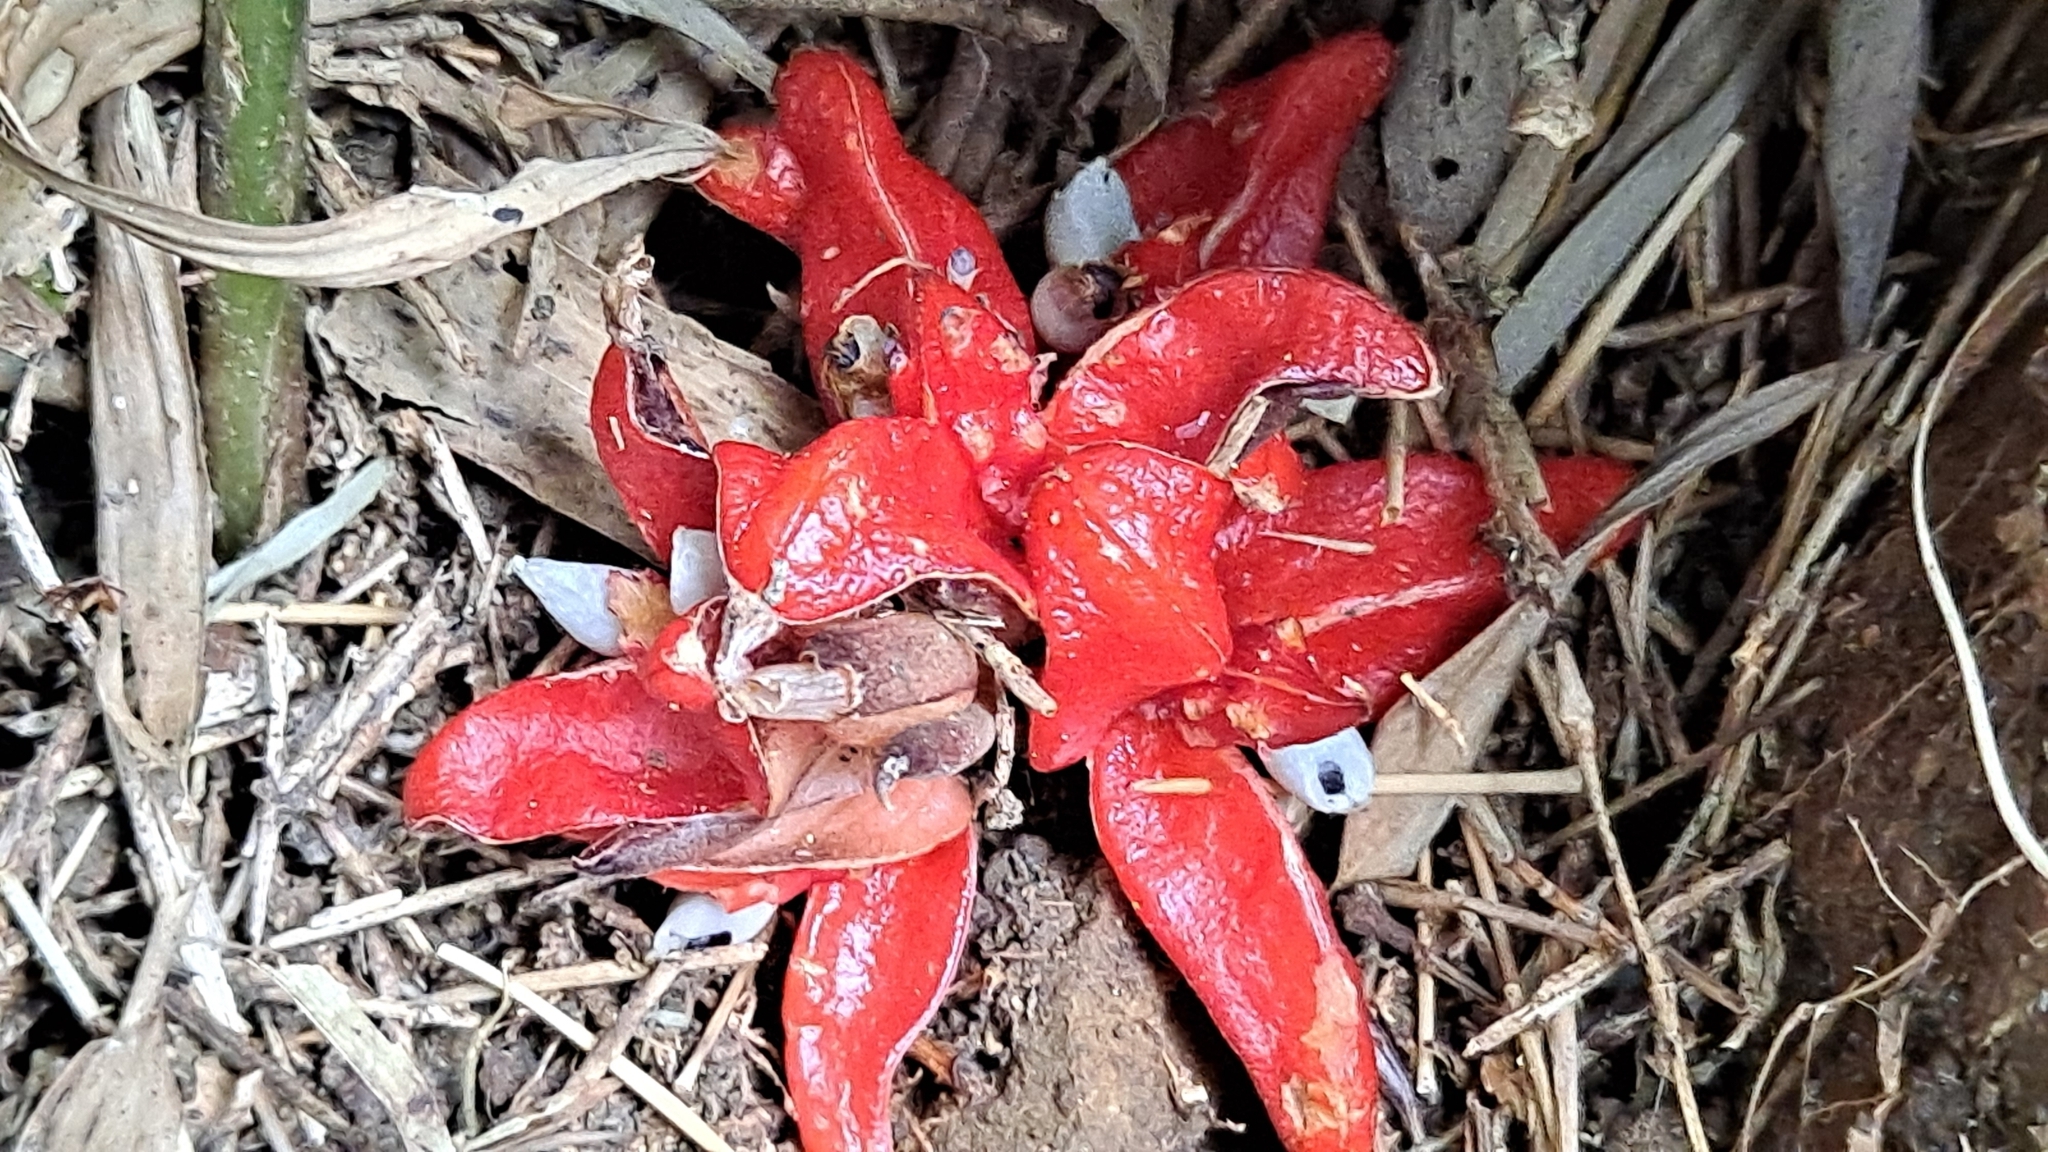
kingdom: Plantae
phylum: Tracheophyta
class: Liliopsida
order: Zingiberales
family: Zingiberaceae
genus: Zingiber
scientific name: Zingiber kawagoii
